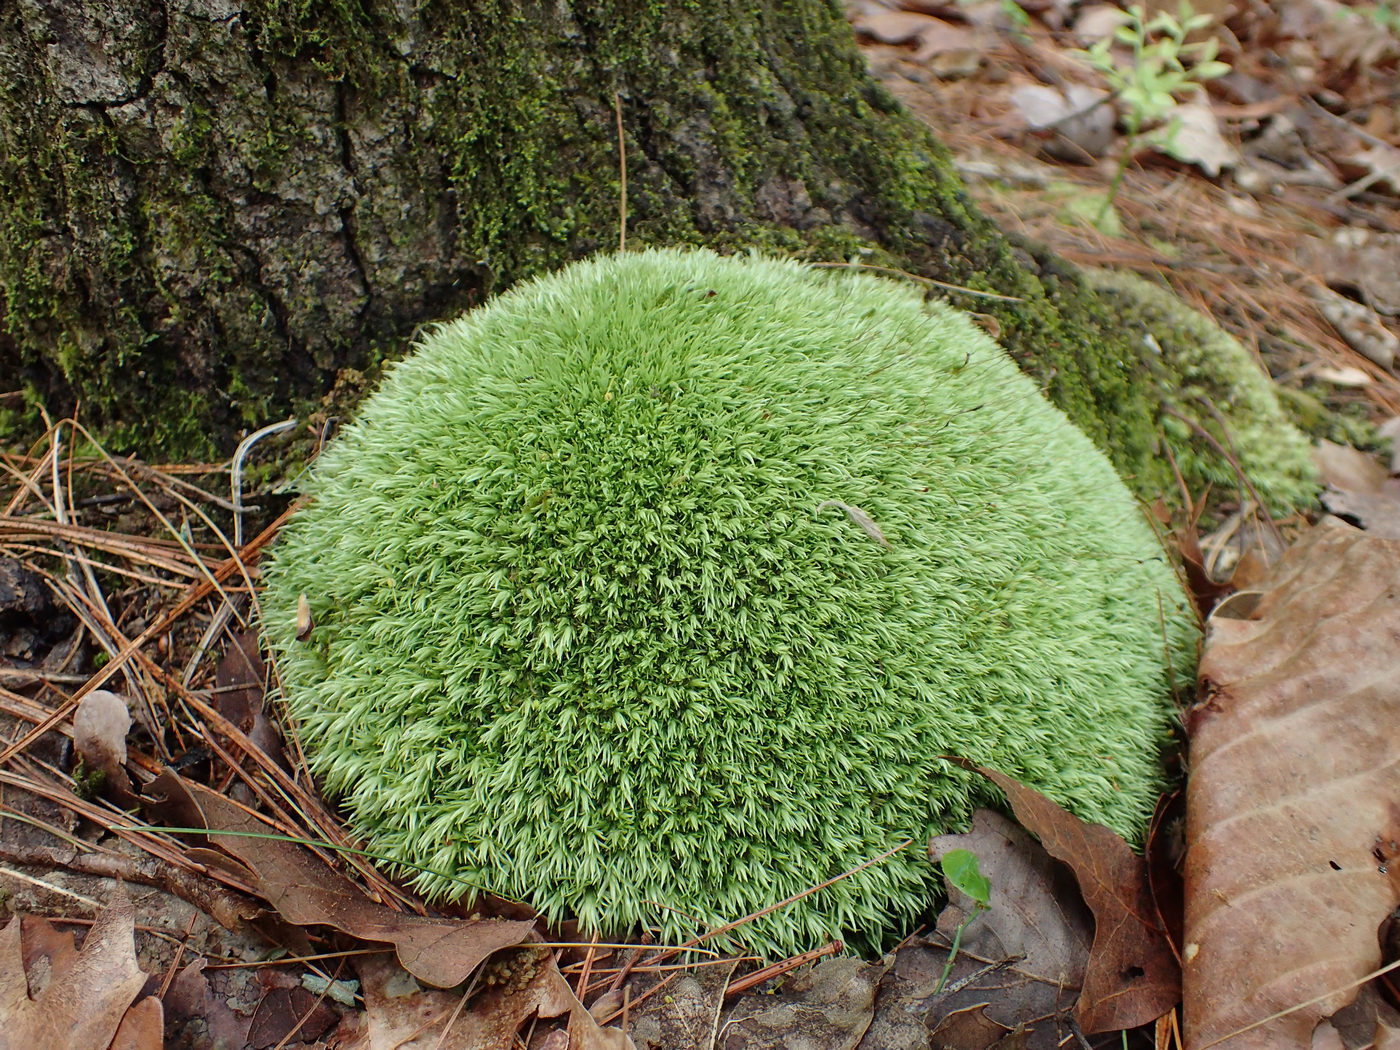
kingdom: Plantae
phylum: Bryophyta
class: Bryopsida
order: Dicranales
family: Leucobryaceae
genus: Leucobryum
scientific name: Leucobryum glaucum
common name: Large white-moss
